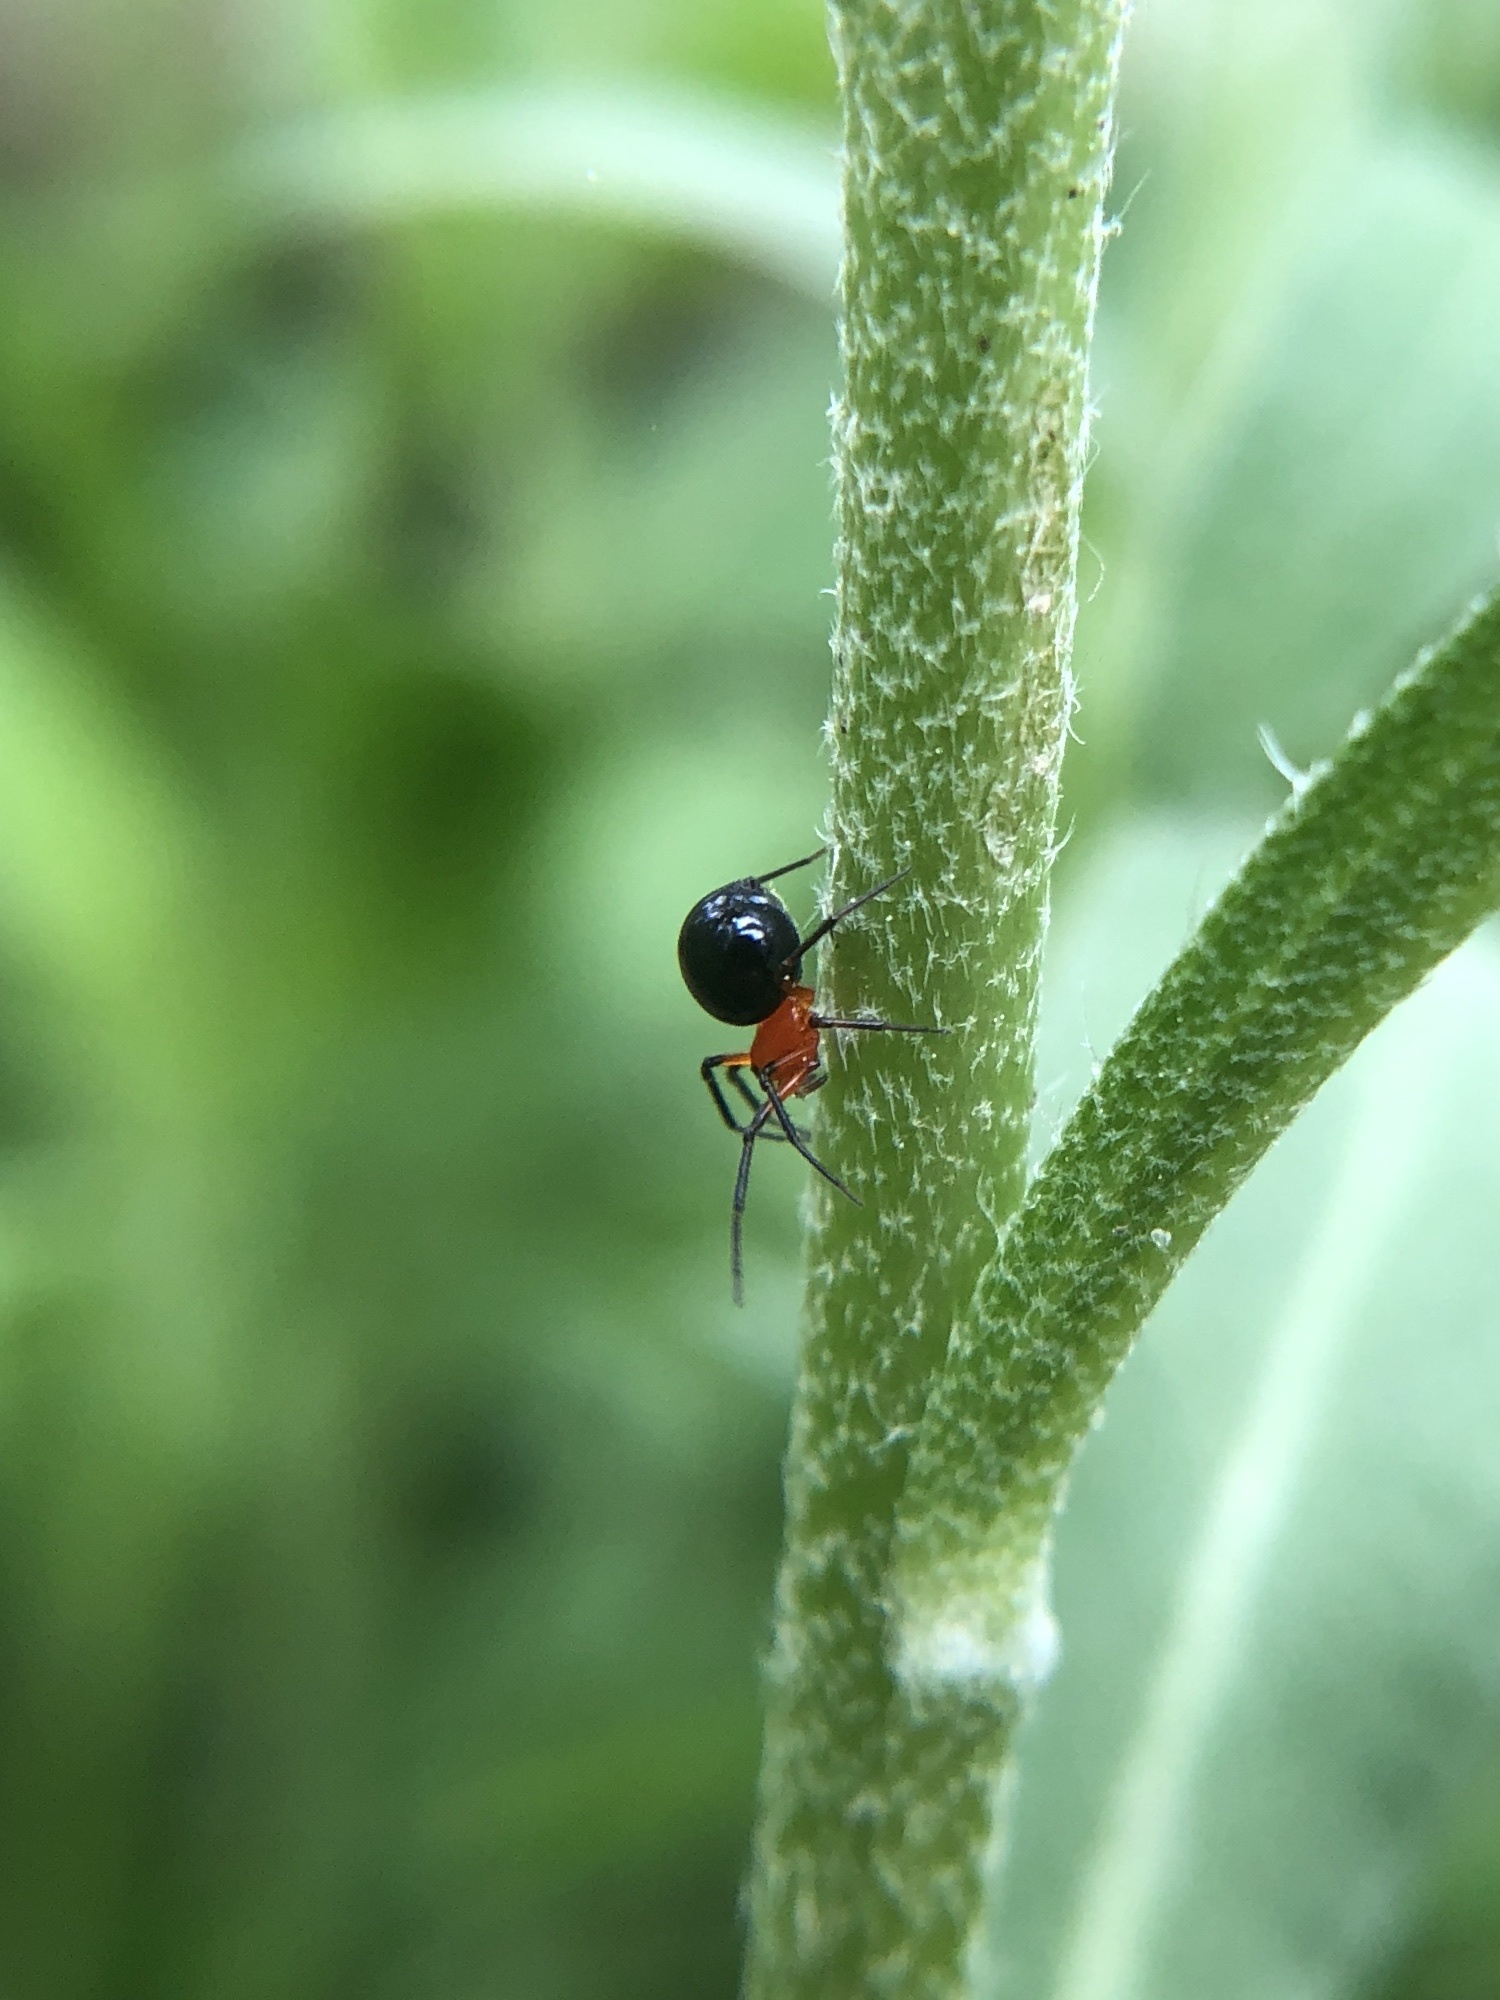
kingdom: Animalia
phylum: Arthropoda
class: Arachnida
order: Araneae
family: Linyphiidae
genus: Hypselistes
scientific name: Hypselistes florens
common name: Peatland sheetweb weaver
